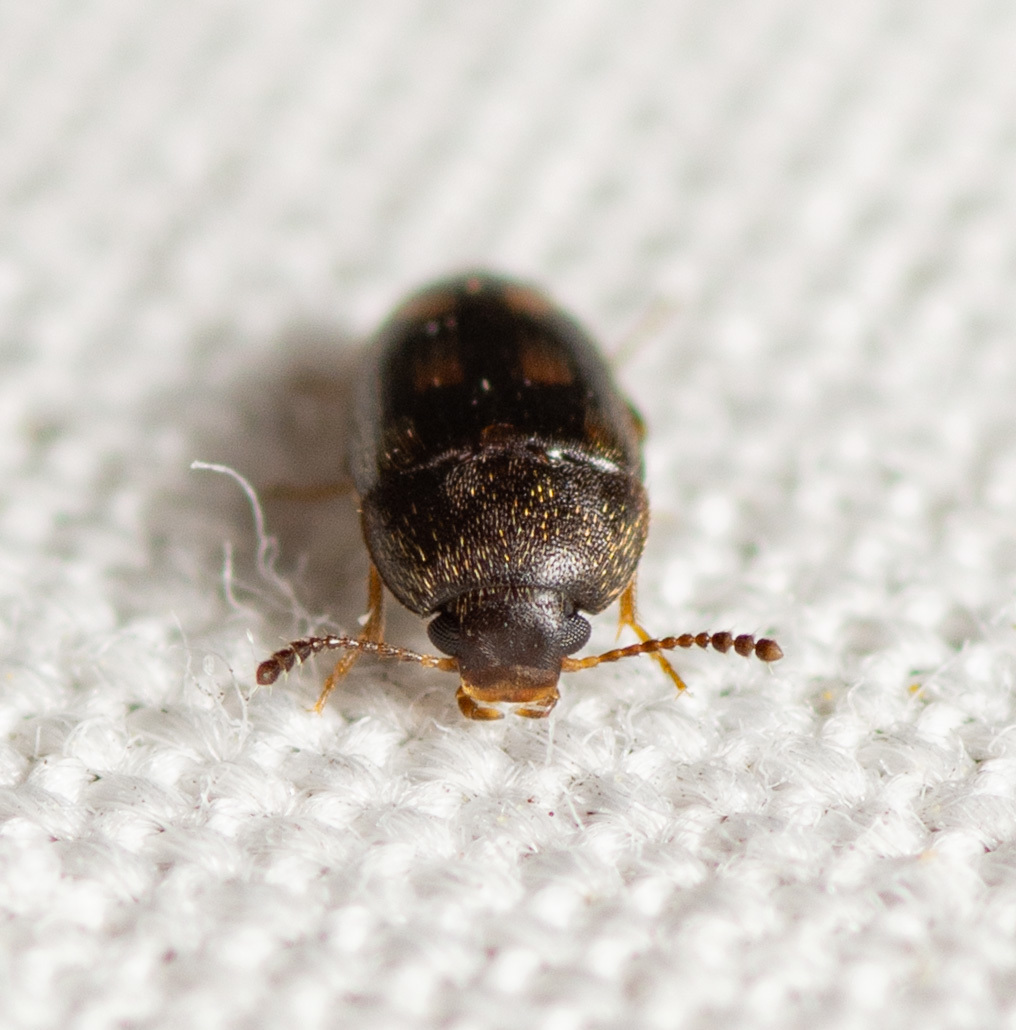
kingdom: Animalia
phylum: Arthropoda
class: Insecta
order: Coleoptera
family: Mycetophagidae
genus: Litargus
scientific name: Litargus sexpunctatus
